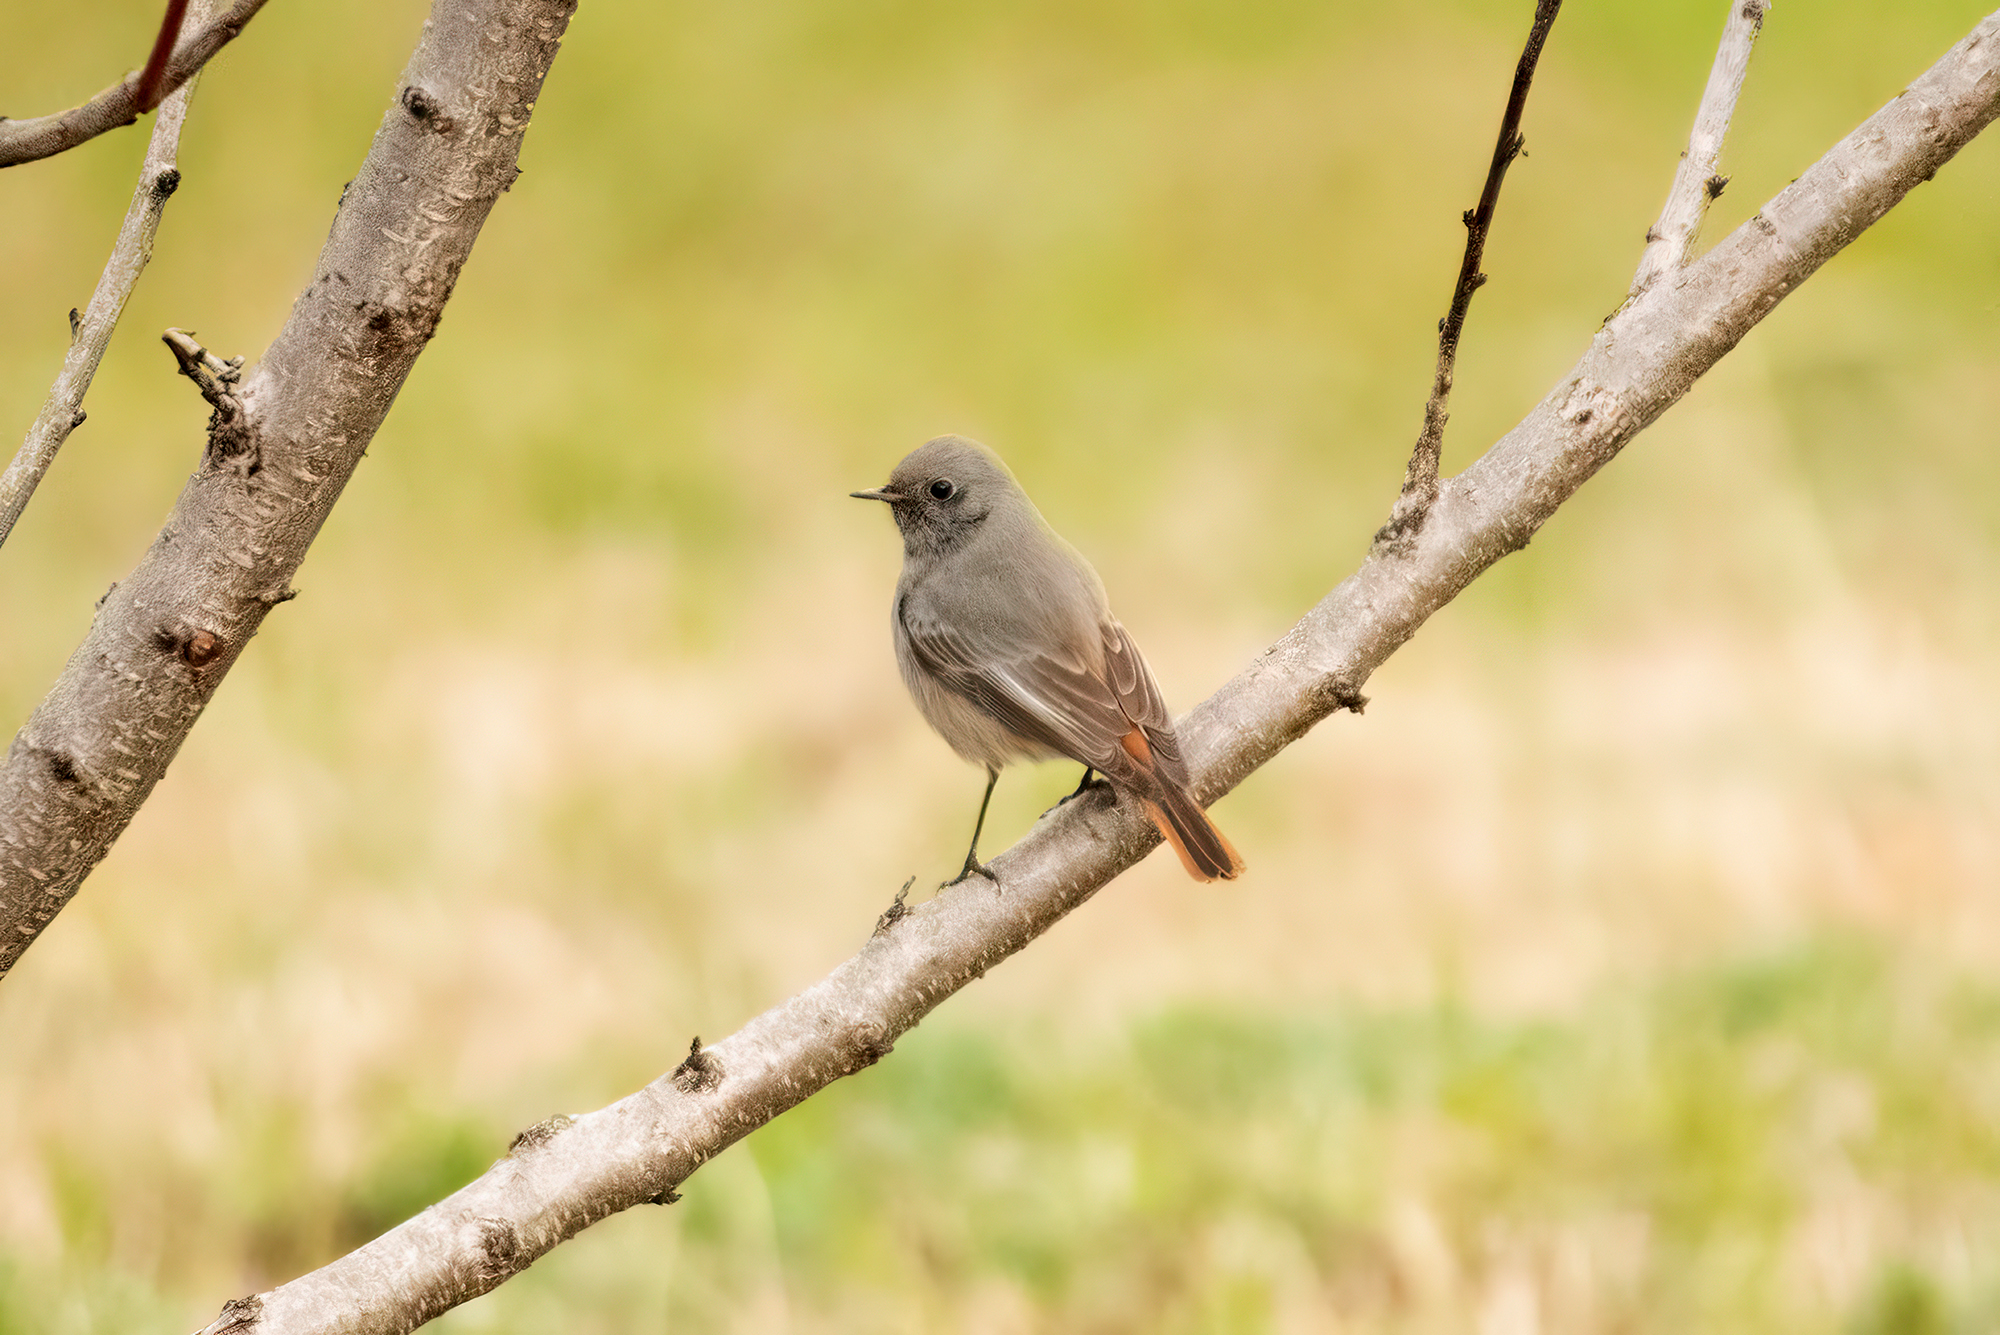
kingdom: Animalia
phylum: Chordata
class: Aves
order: Passeriformes
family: Muscicapidae
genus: Phoenicurus
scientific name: Phoenicurus ochruros
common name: Black redstart
